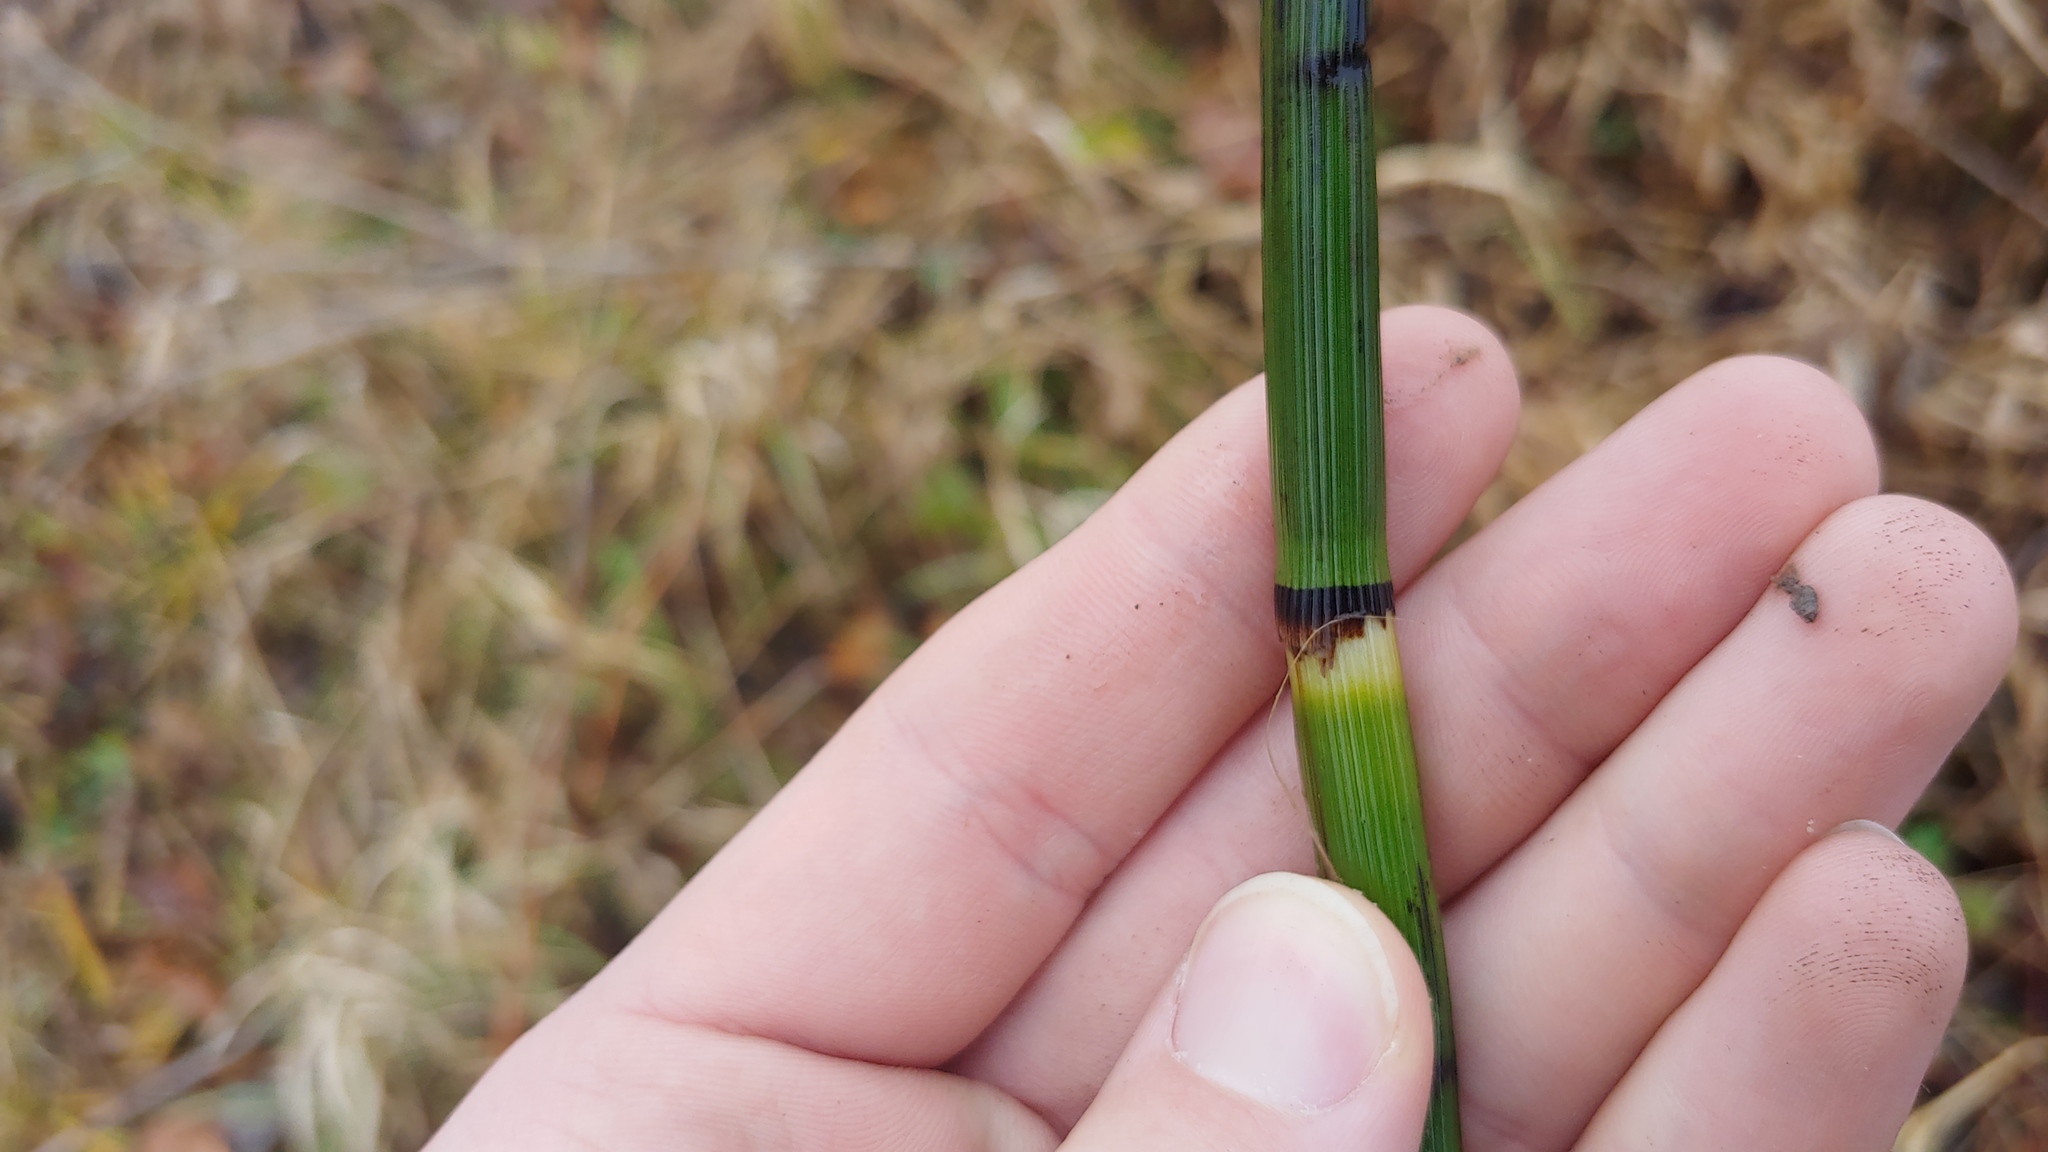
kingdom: Plantae
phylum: Tracheophyta
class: Polypodiopsida
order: Equisetales
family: Equisetaceae
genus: Equisetum
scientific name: Equisetum hyemale
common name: Rough horsetail
